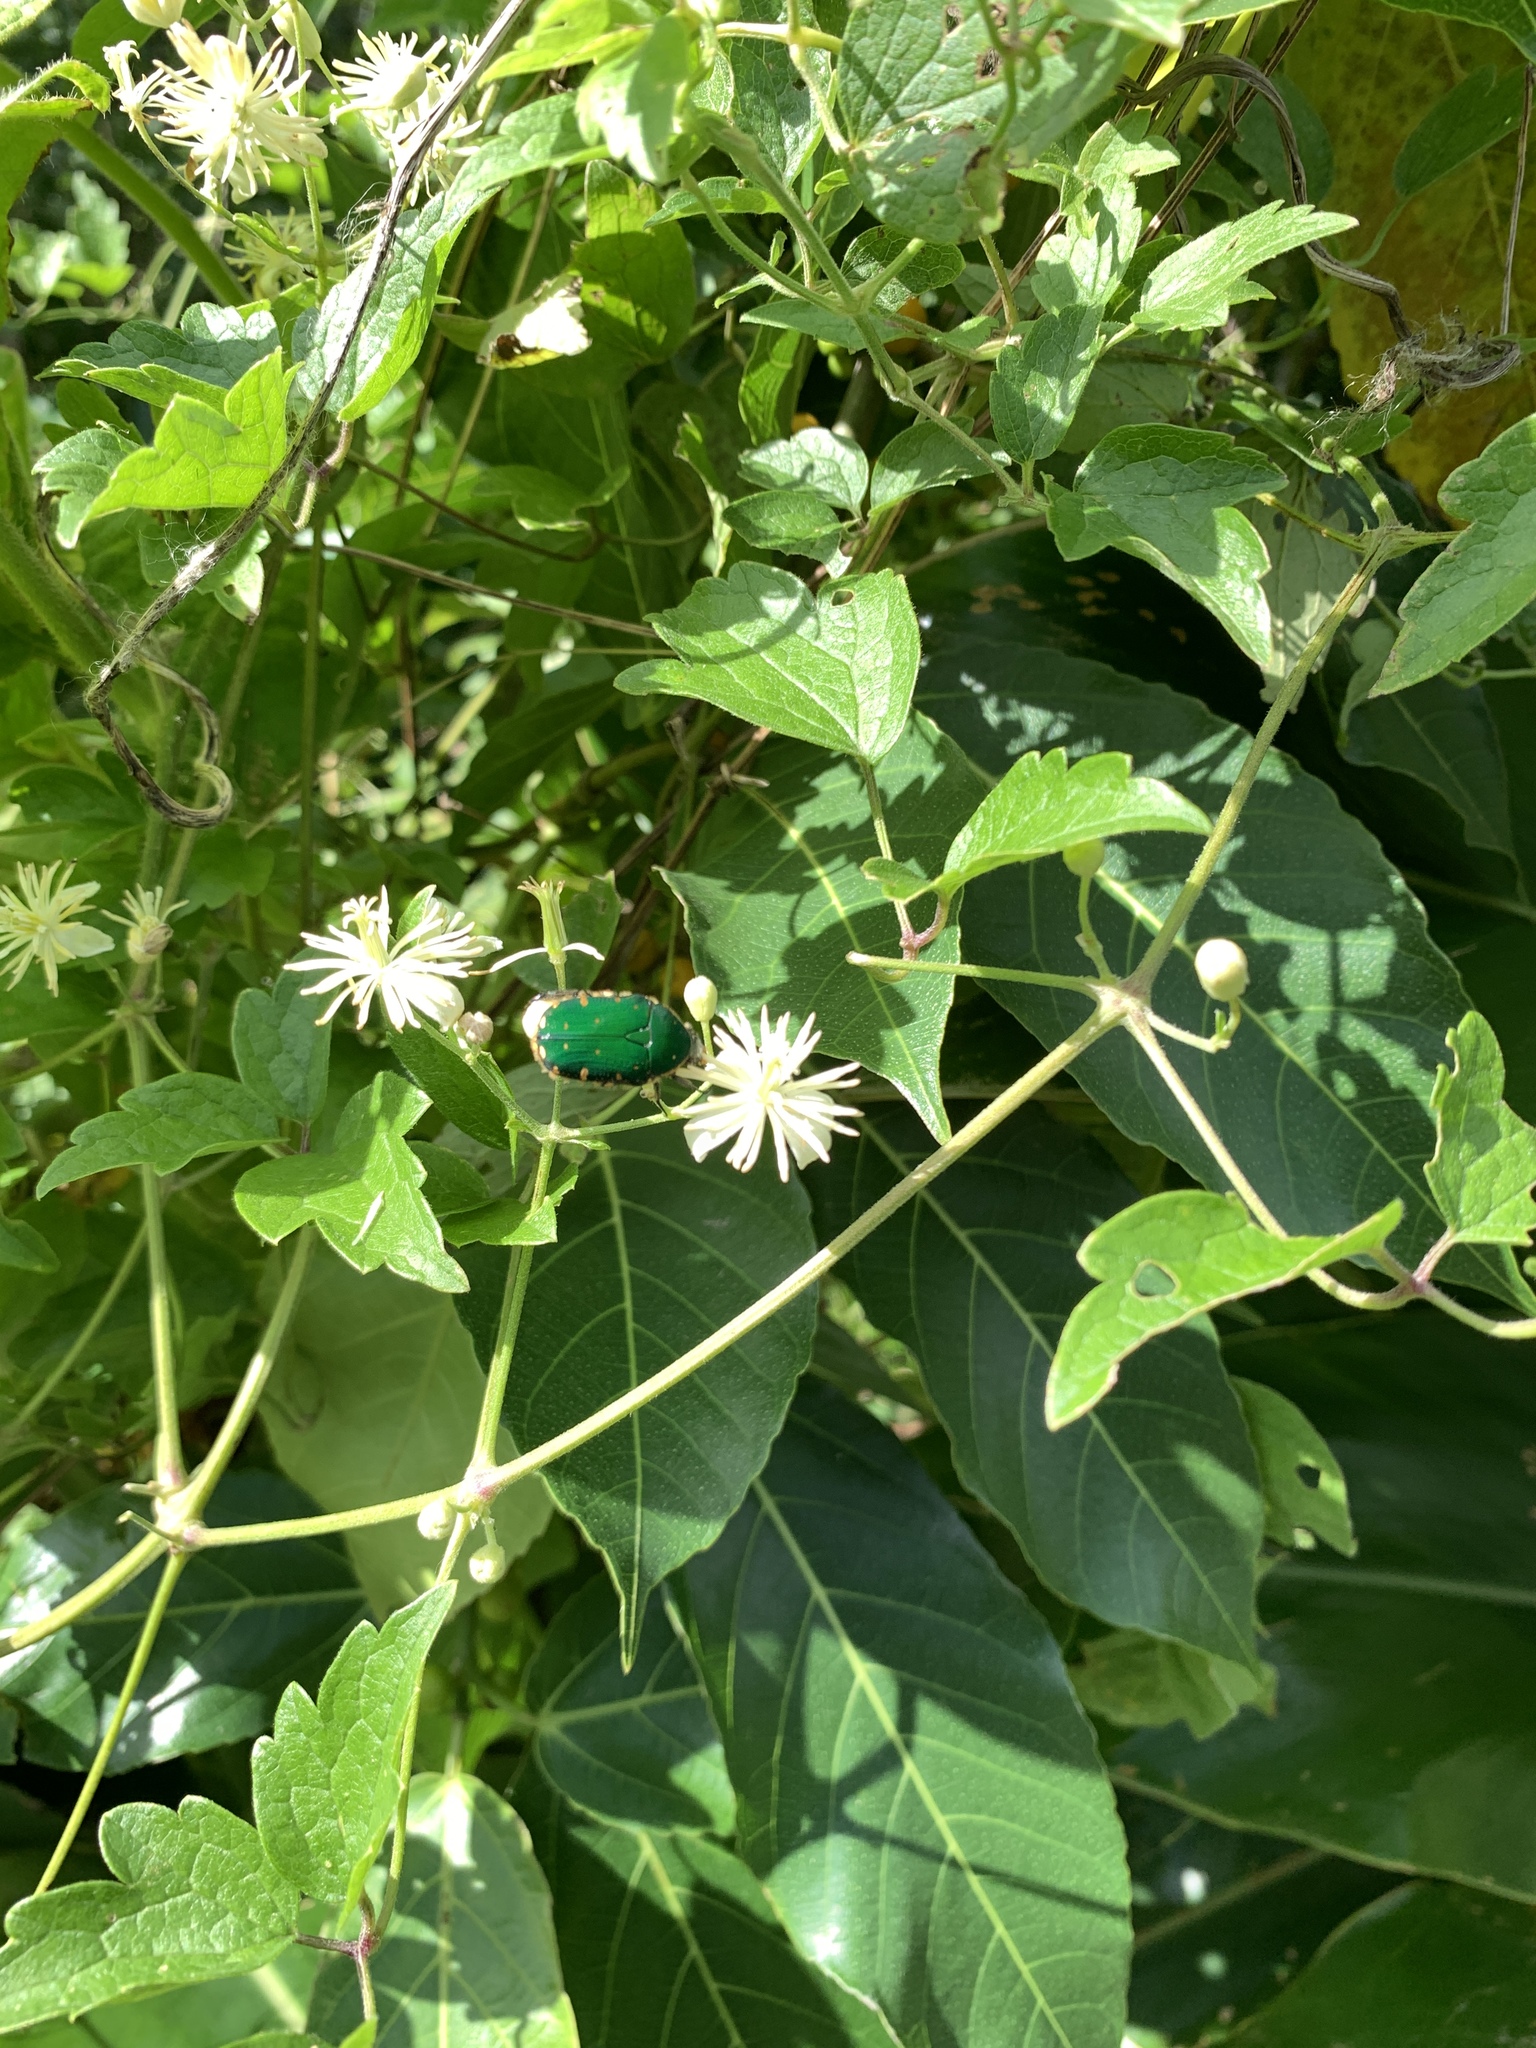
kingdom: Animalia
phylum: Arthropoda
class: Insecta
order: Coleoptera
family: Scarabaeidae
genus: Gametis
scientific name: Gametis forticula
